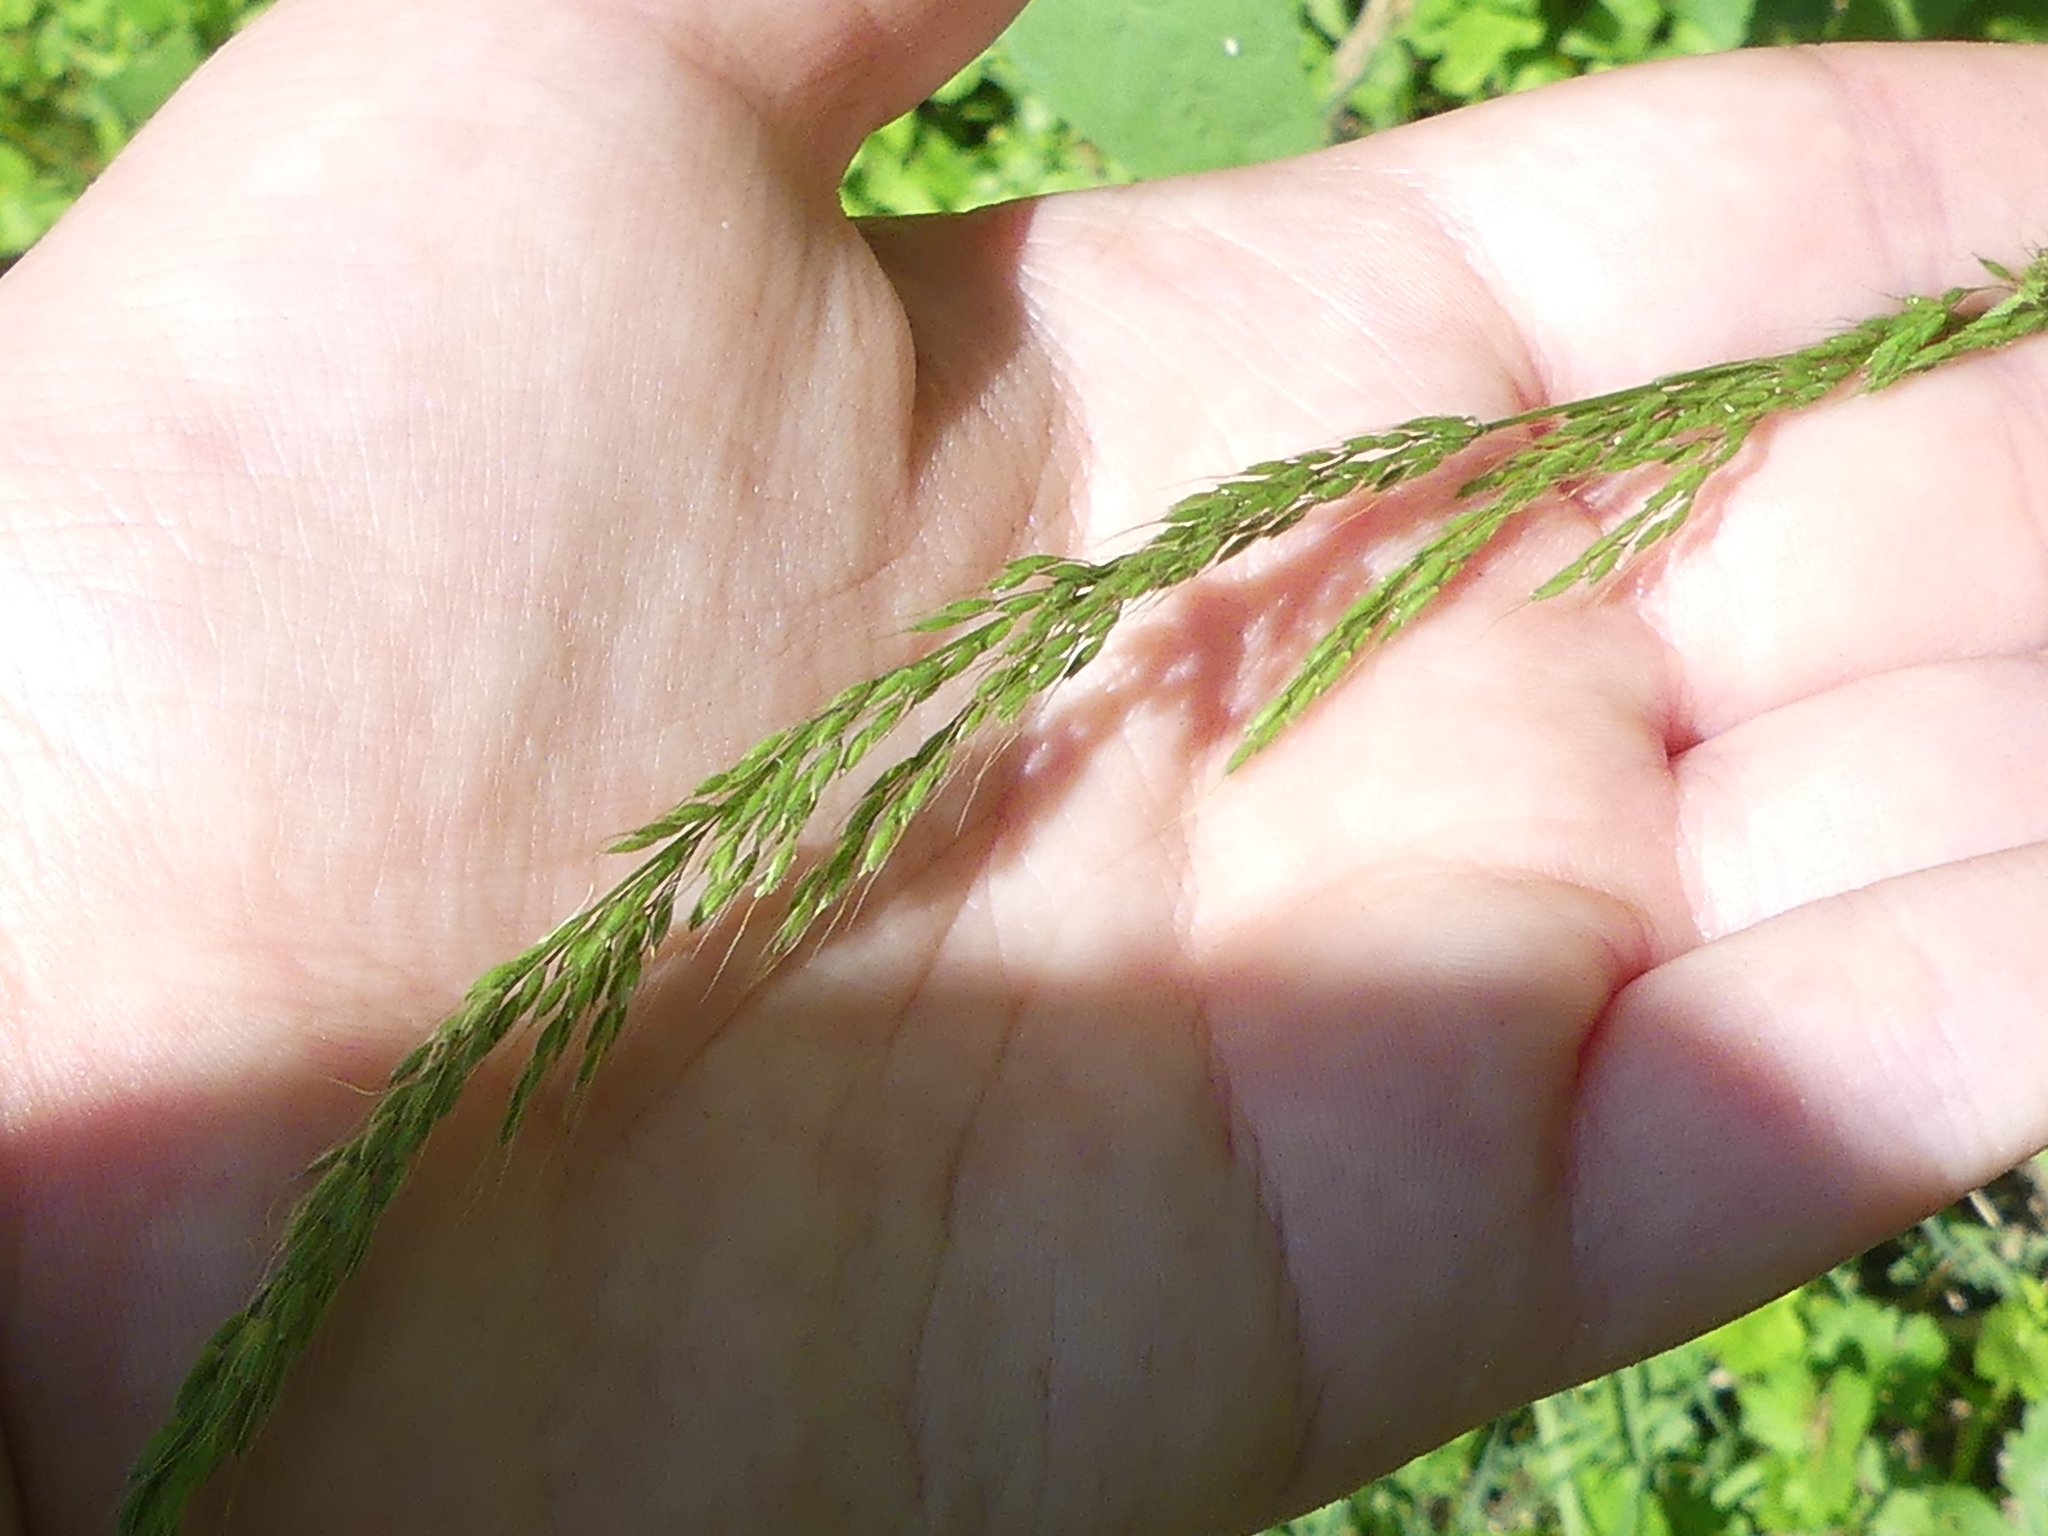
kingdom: Plantae
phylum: Tracheophyta
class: Liliopsida
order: Poales
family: Poaceae
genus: Limnodea
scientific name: Limnodea arkansana
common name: Ozark-grass
